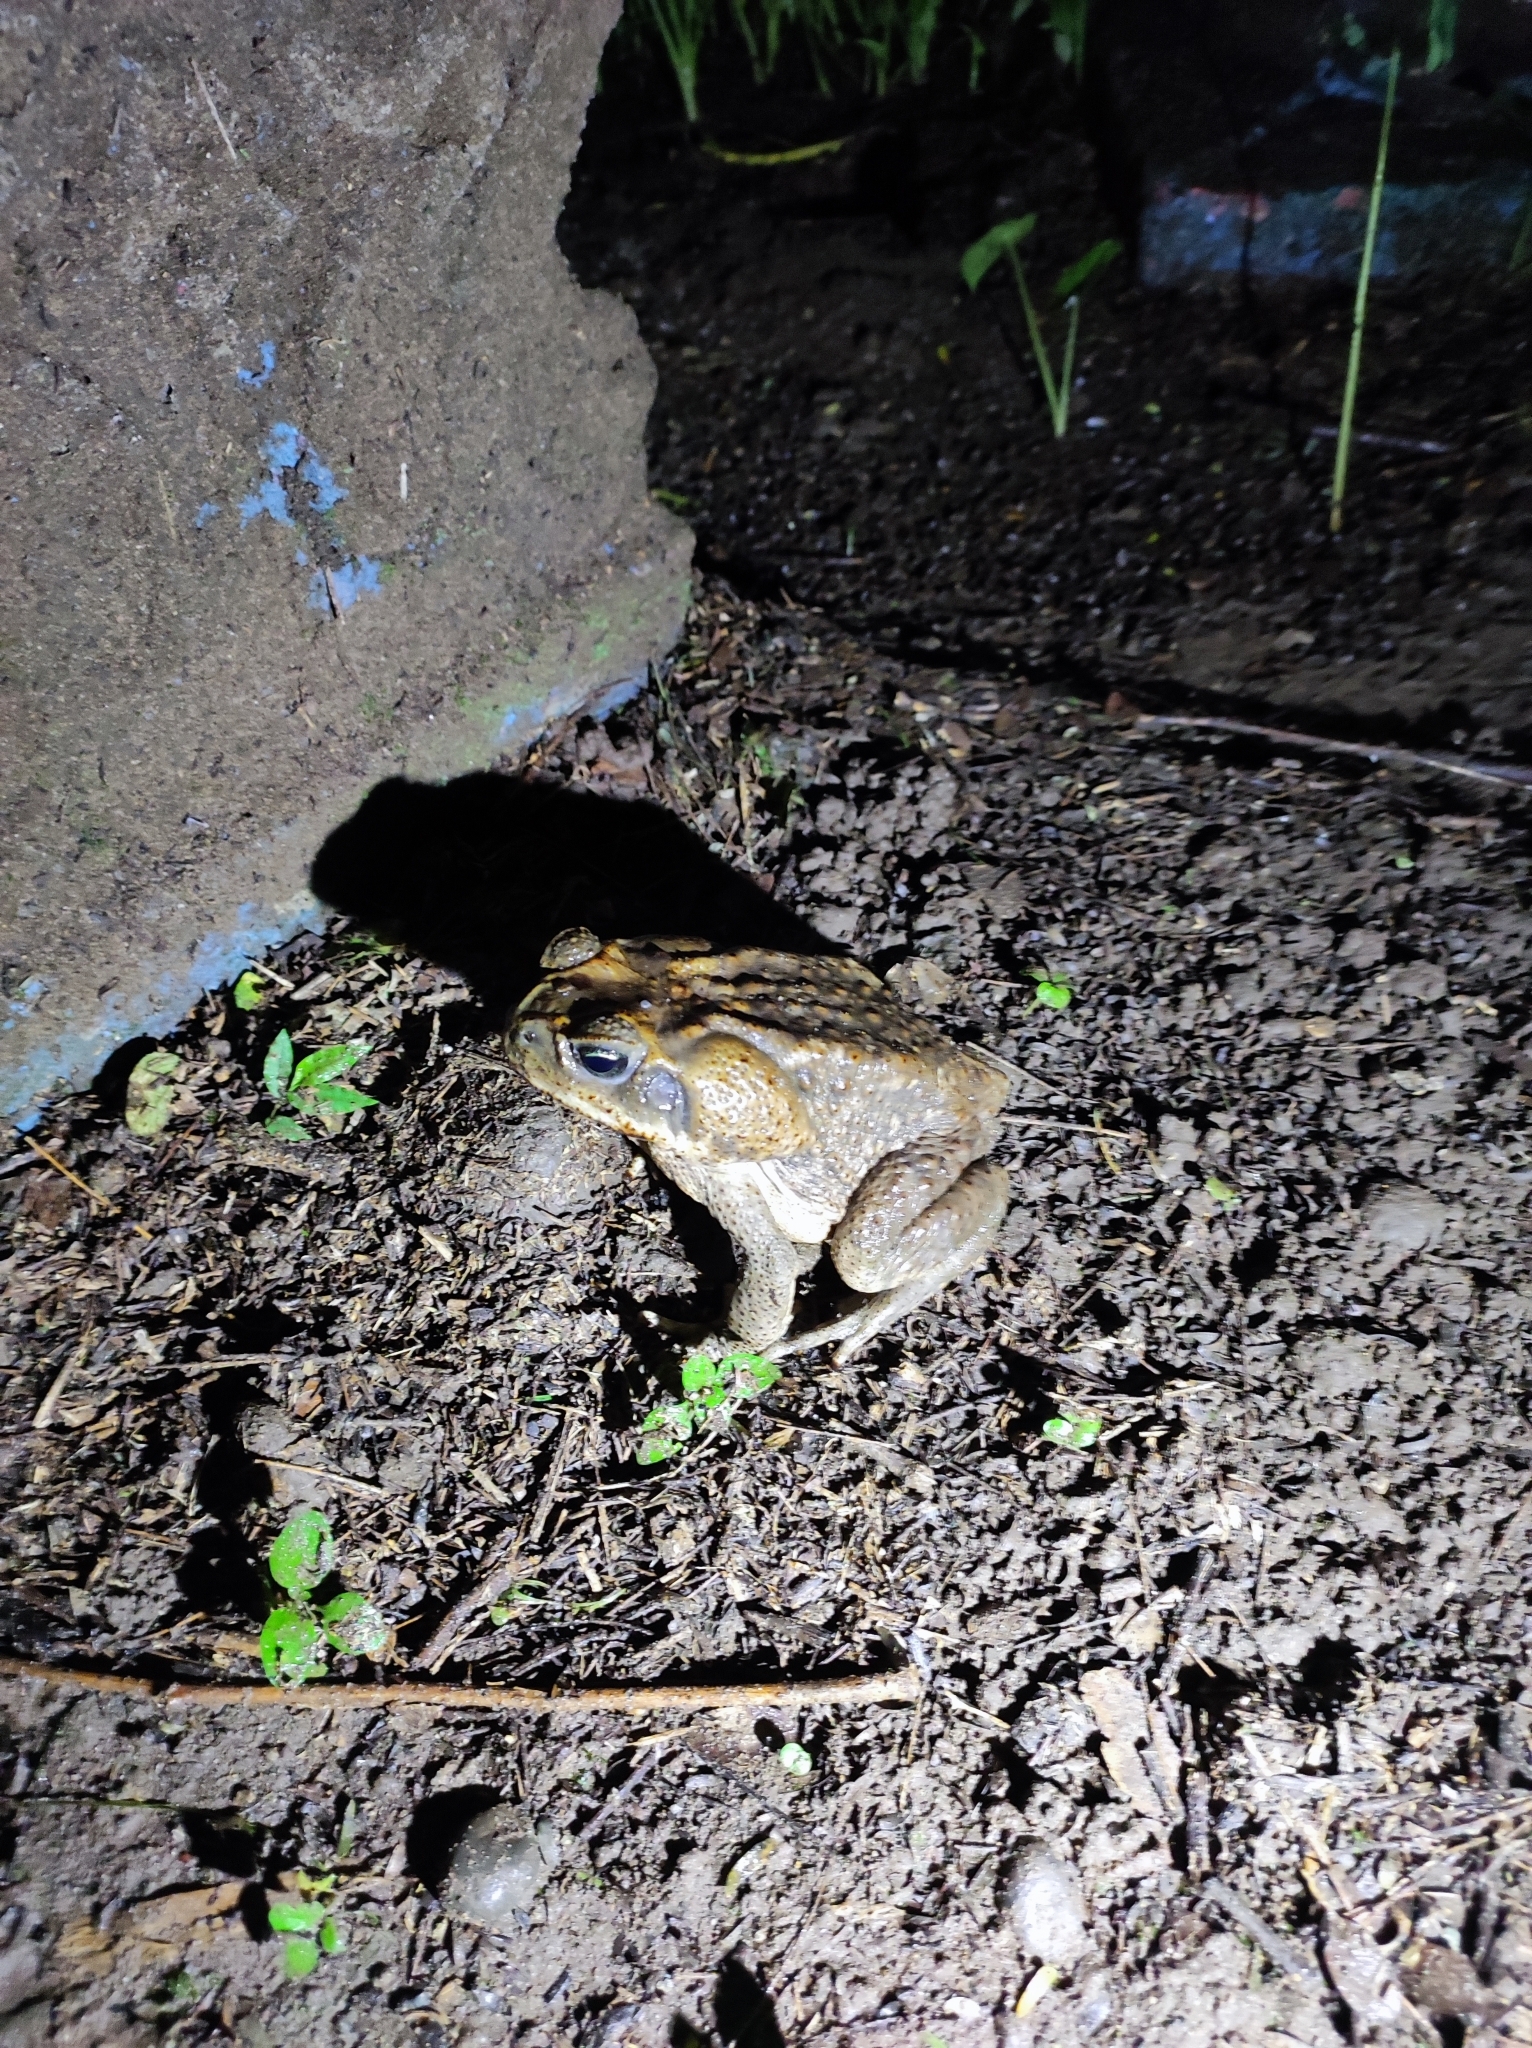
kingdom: Animalia
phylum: Chordata
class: Amphibia
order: Anura
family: Bufonidae
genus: Rhinella
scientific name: Rhinella horribilis
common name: Mesoamerican cane toad
